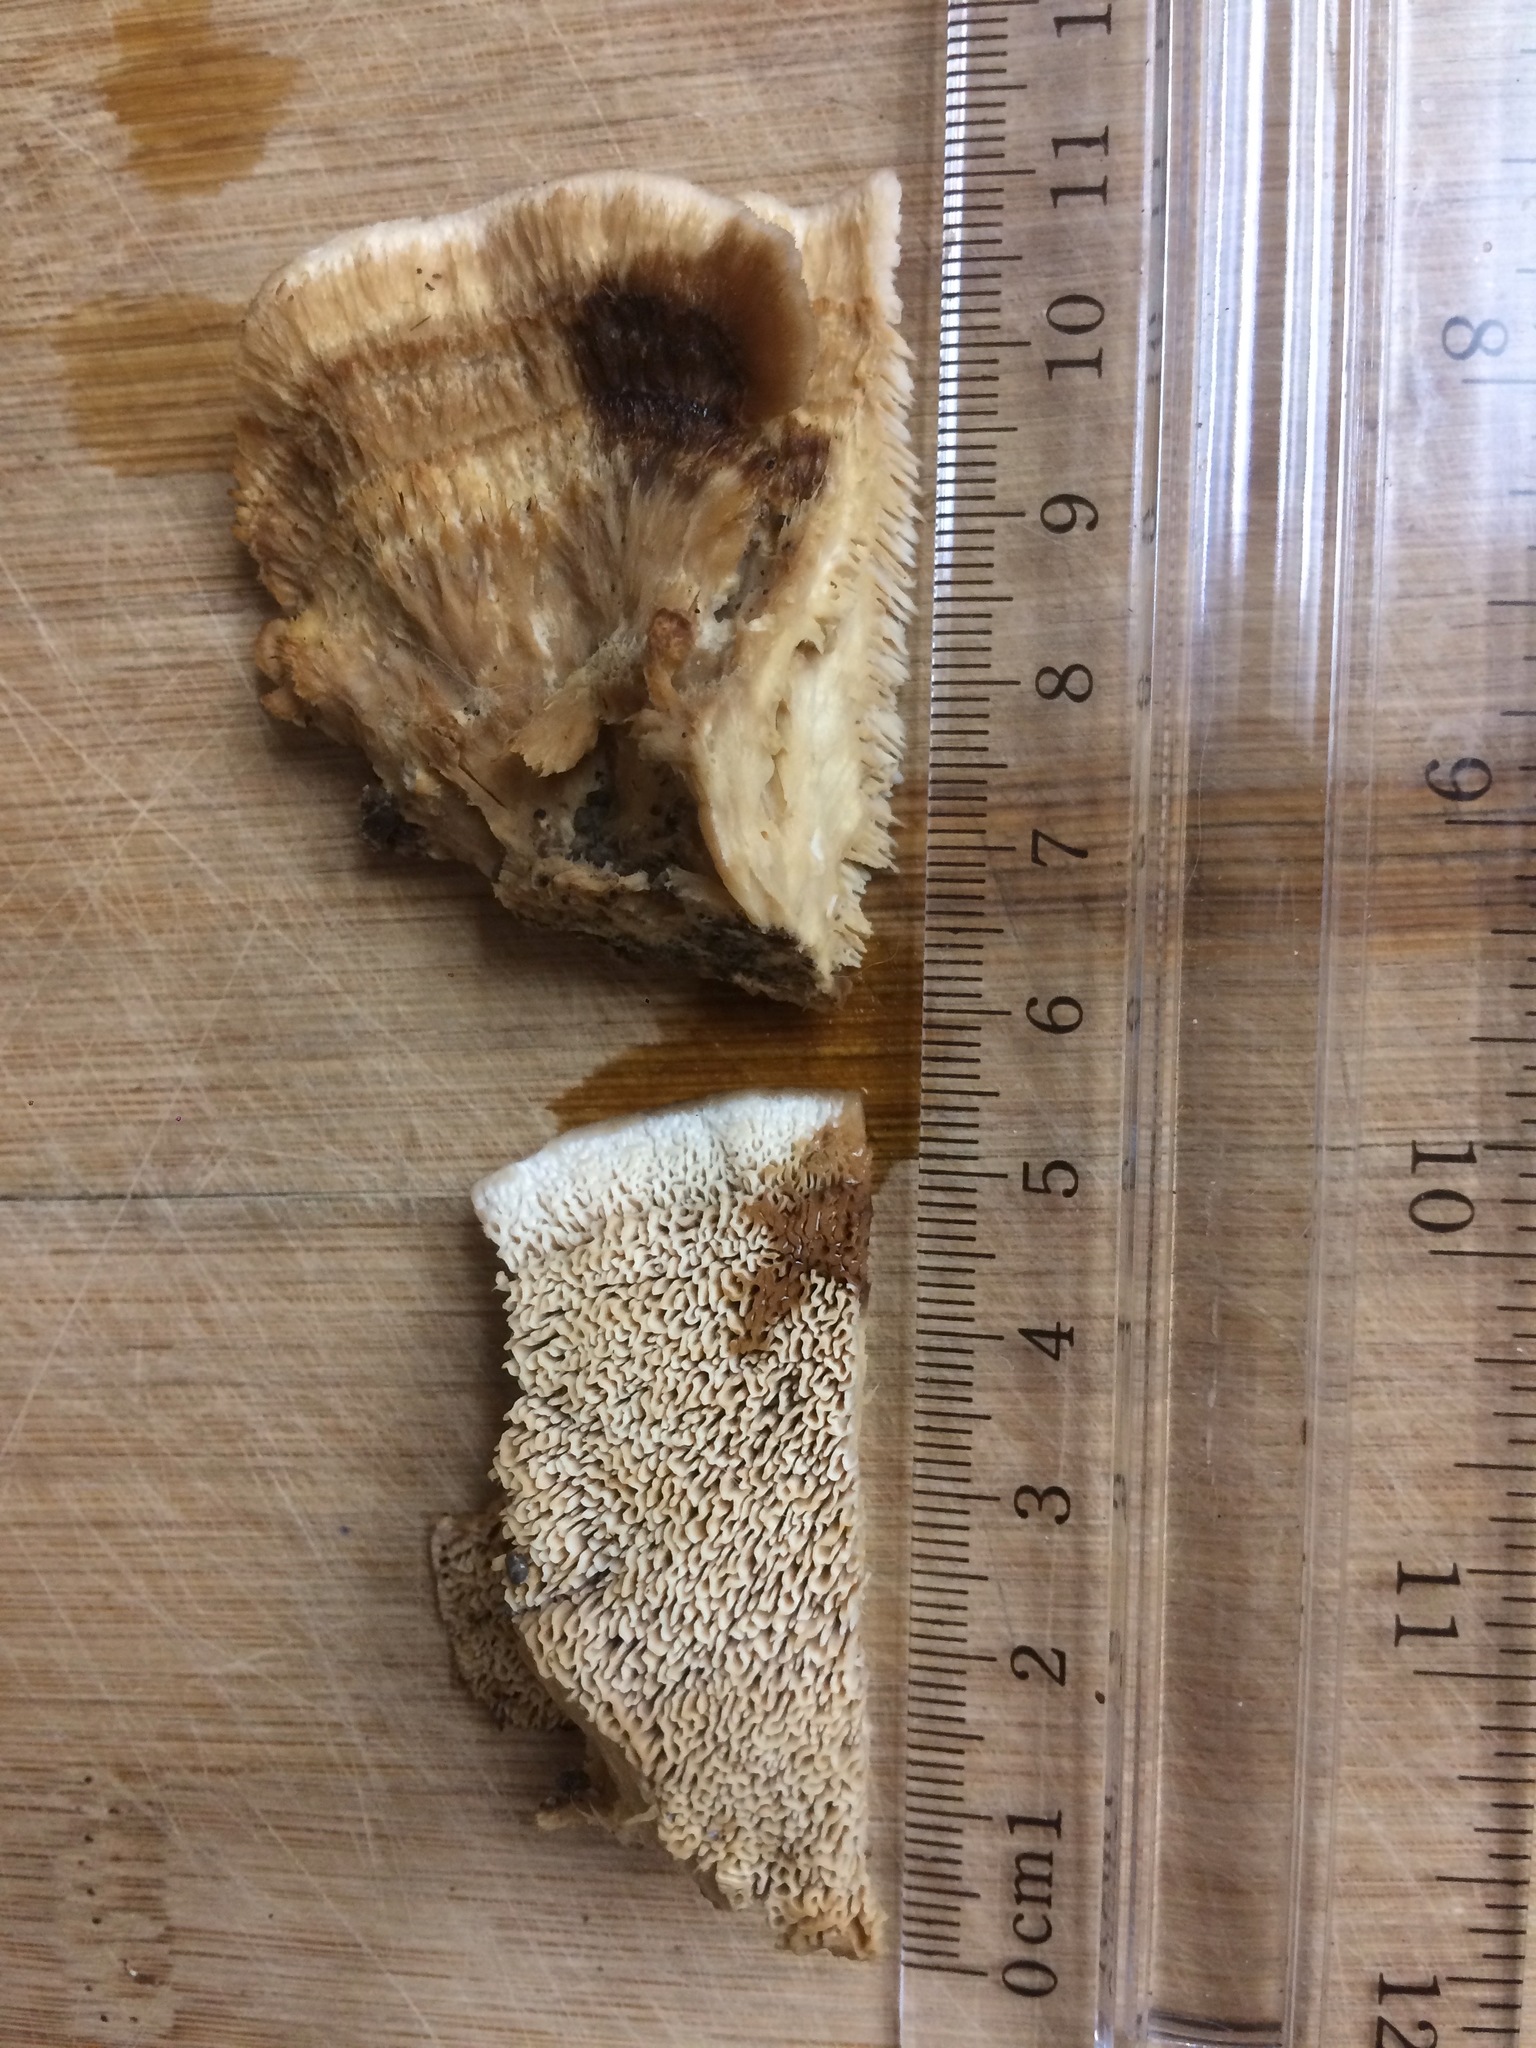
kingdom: Fungi
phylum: Basidiomycota
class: Agaricomycetes
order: Polyporales
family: Irpicaceae
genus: Trametopsis
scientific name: Trametopsis cervina
